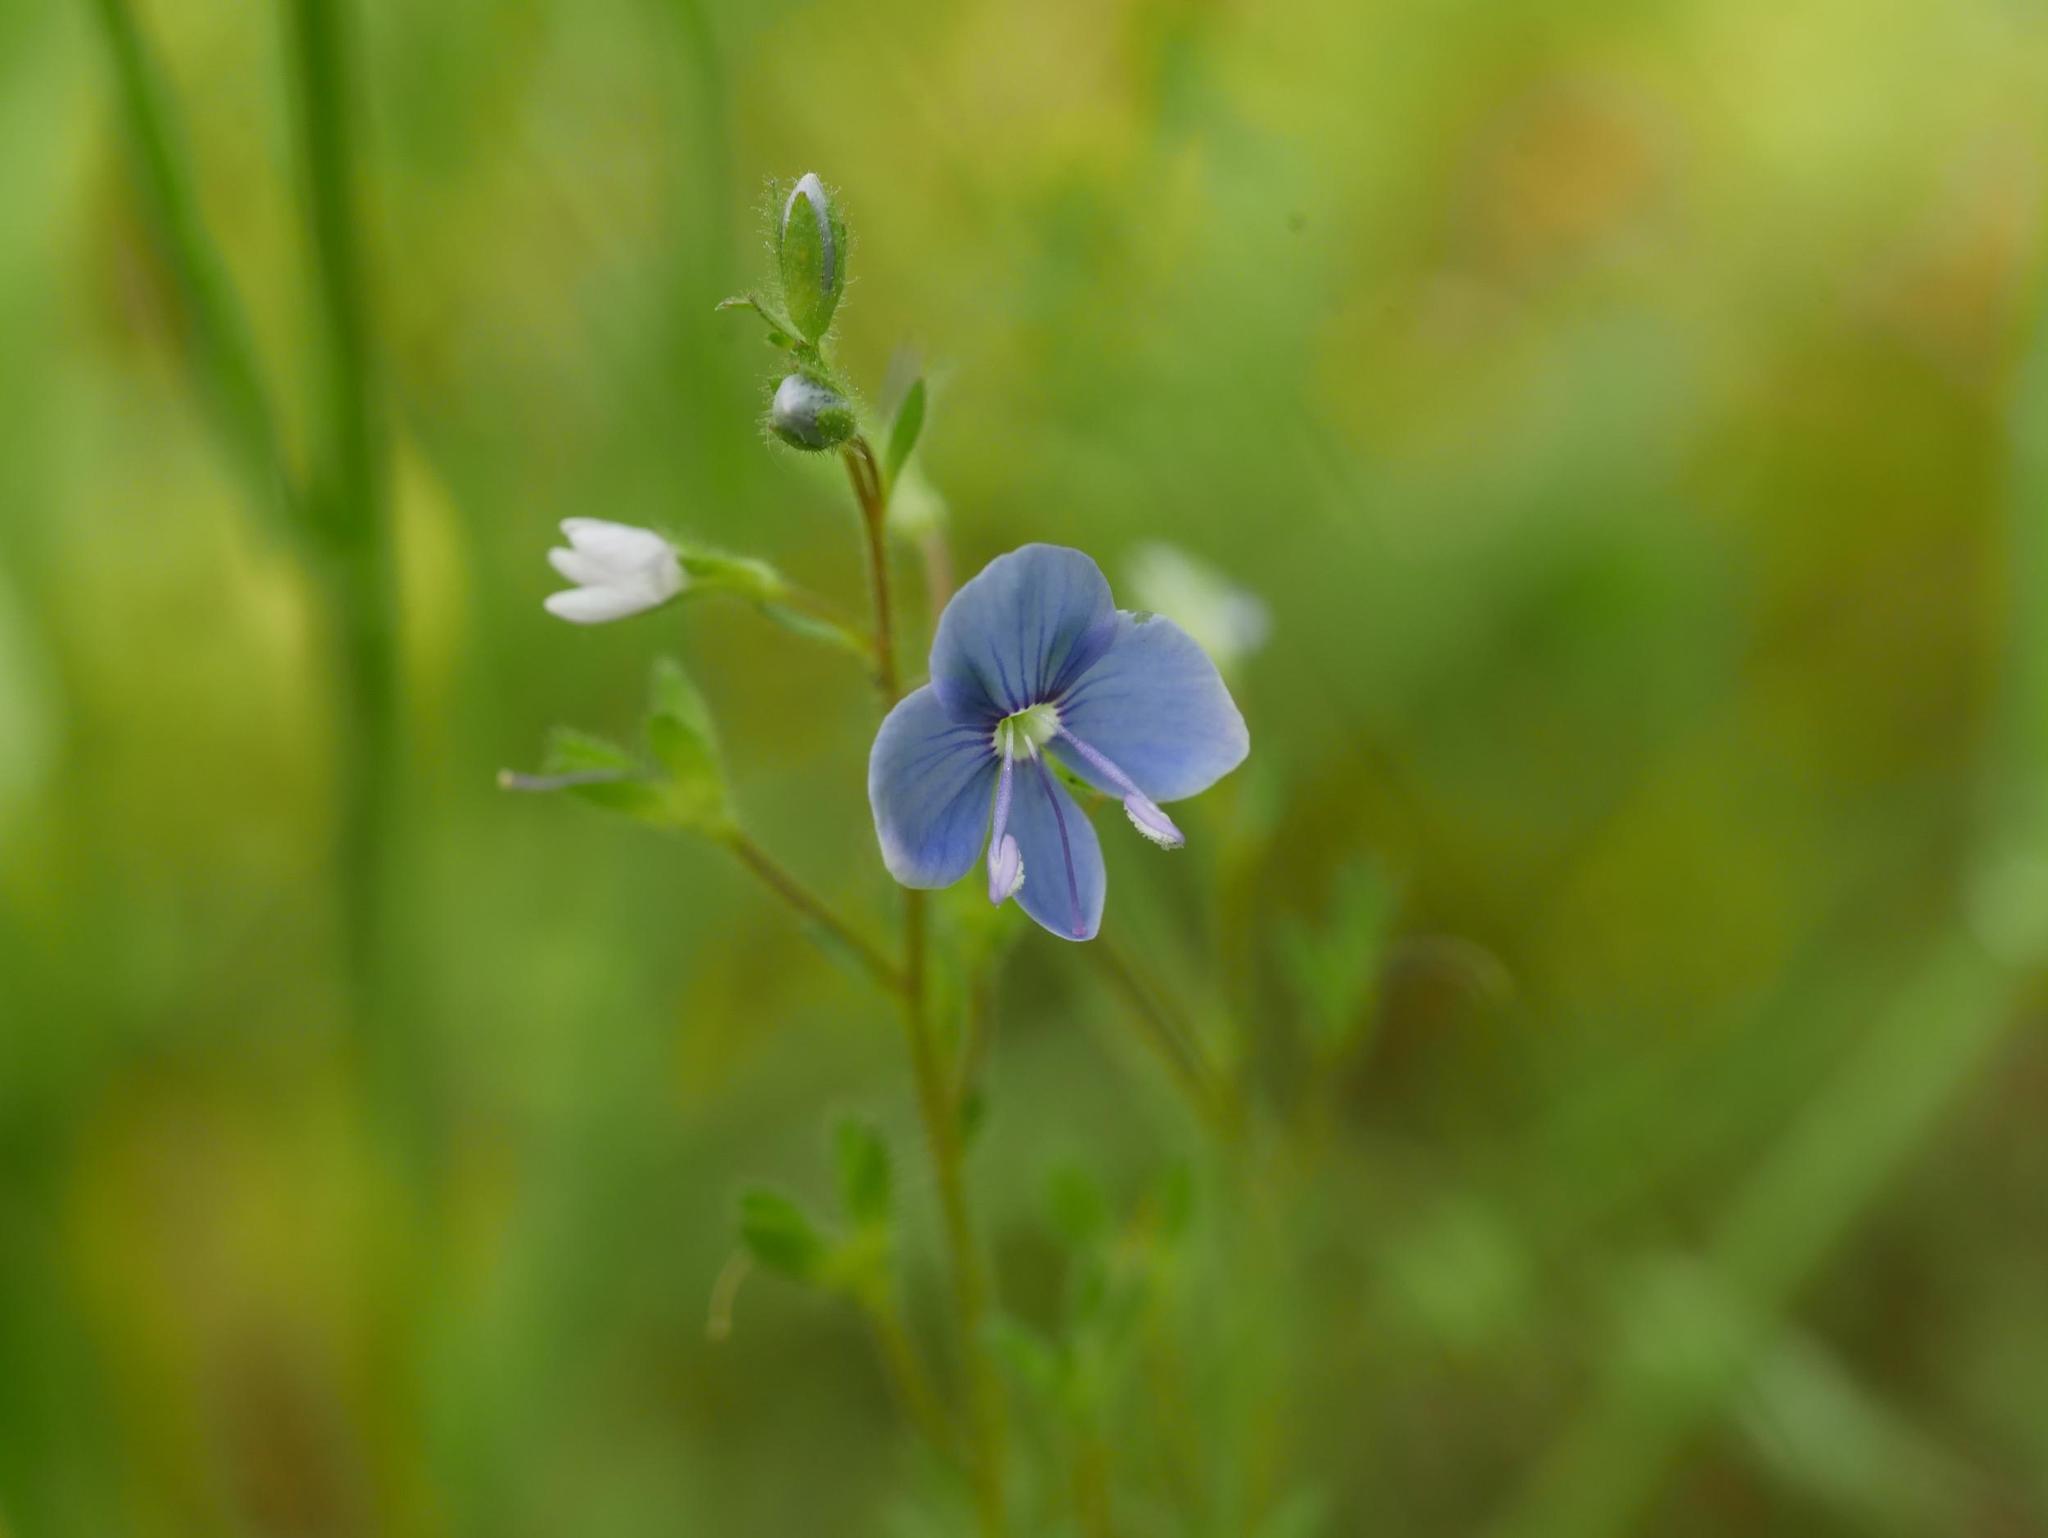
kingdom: Plantae
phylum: Tracheophyta
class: Magnoliopsida
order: Lamiales
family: Plantaginaceae
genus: Veronica
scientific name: Veronica chamaedrys
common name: Germander speedwell
